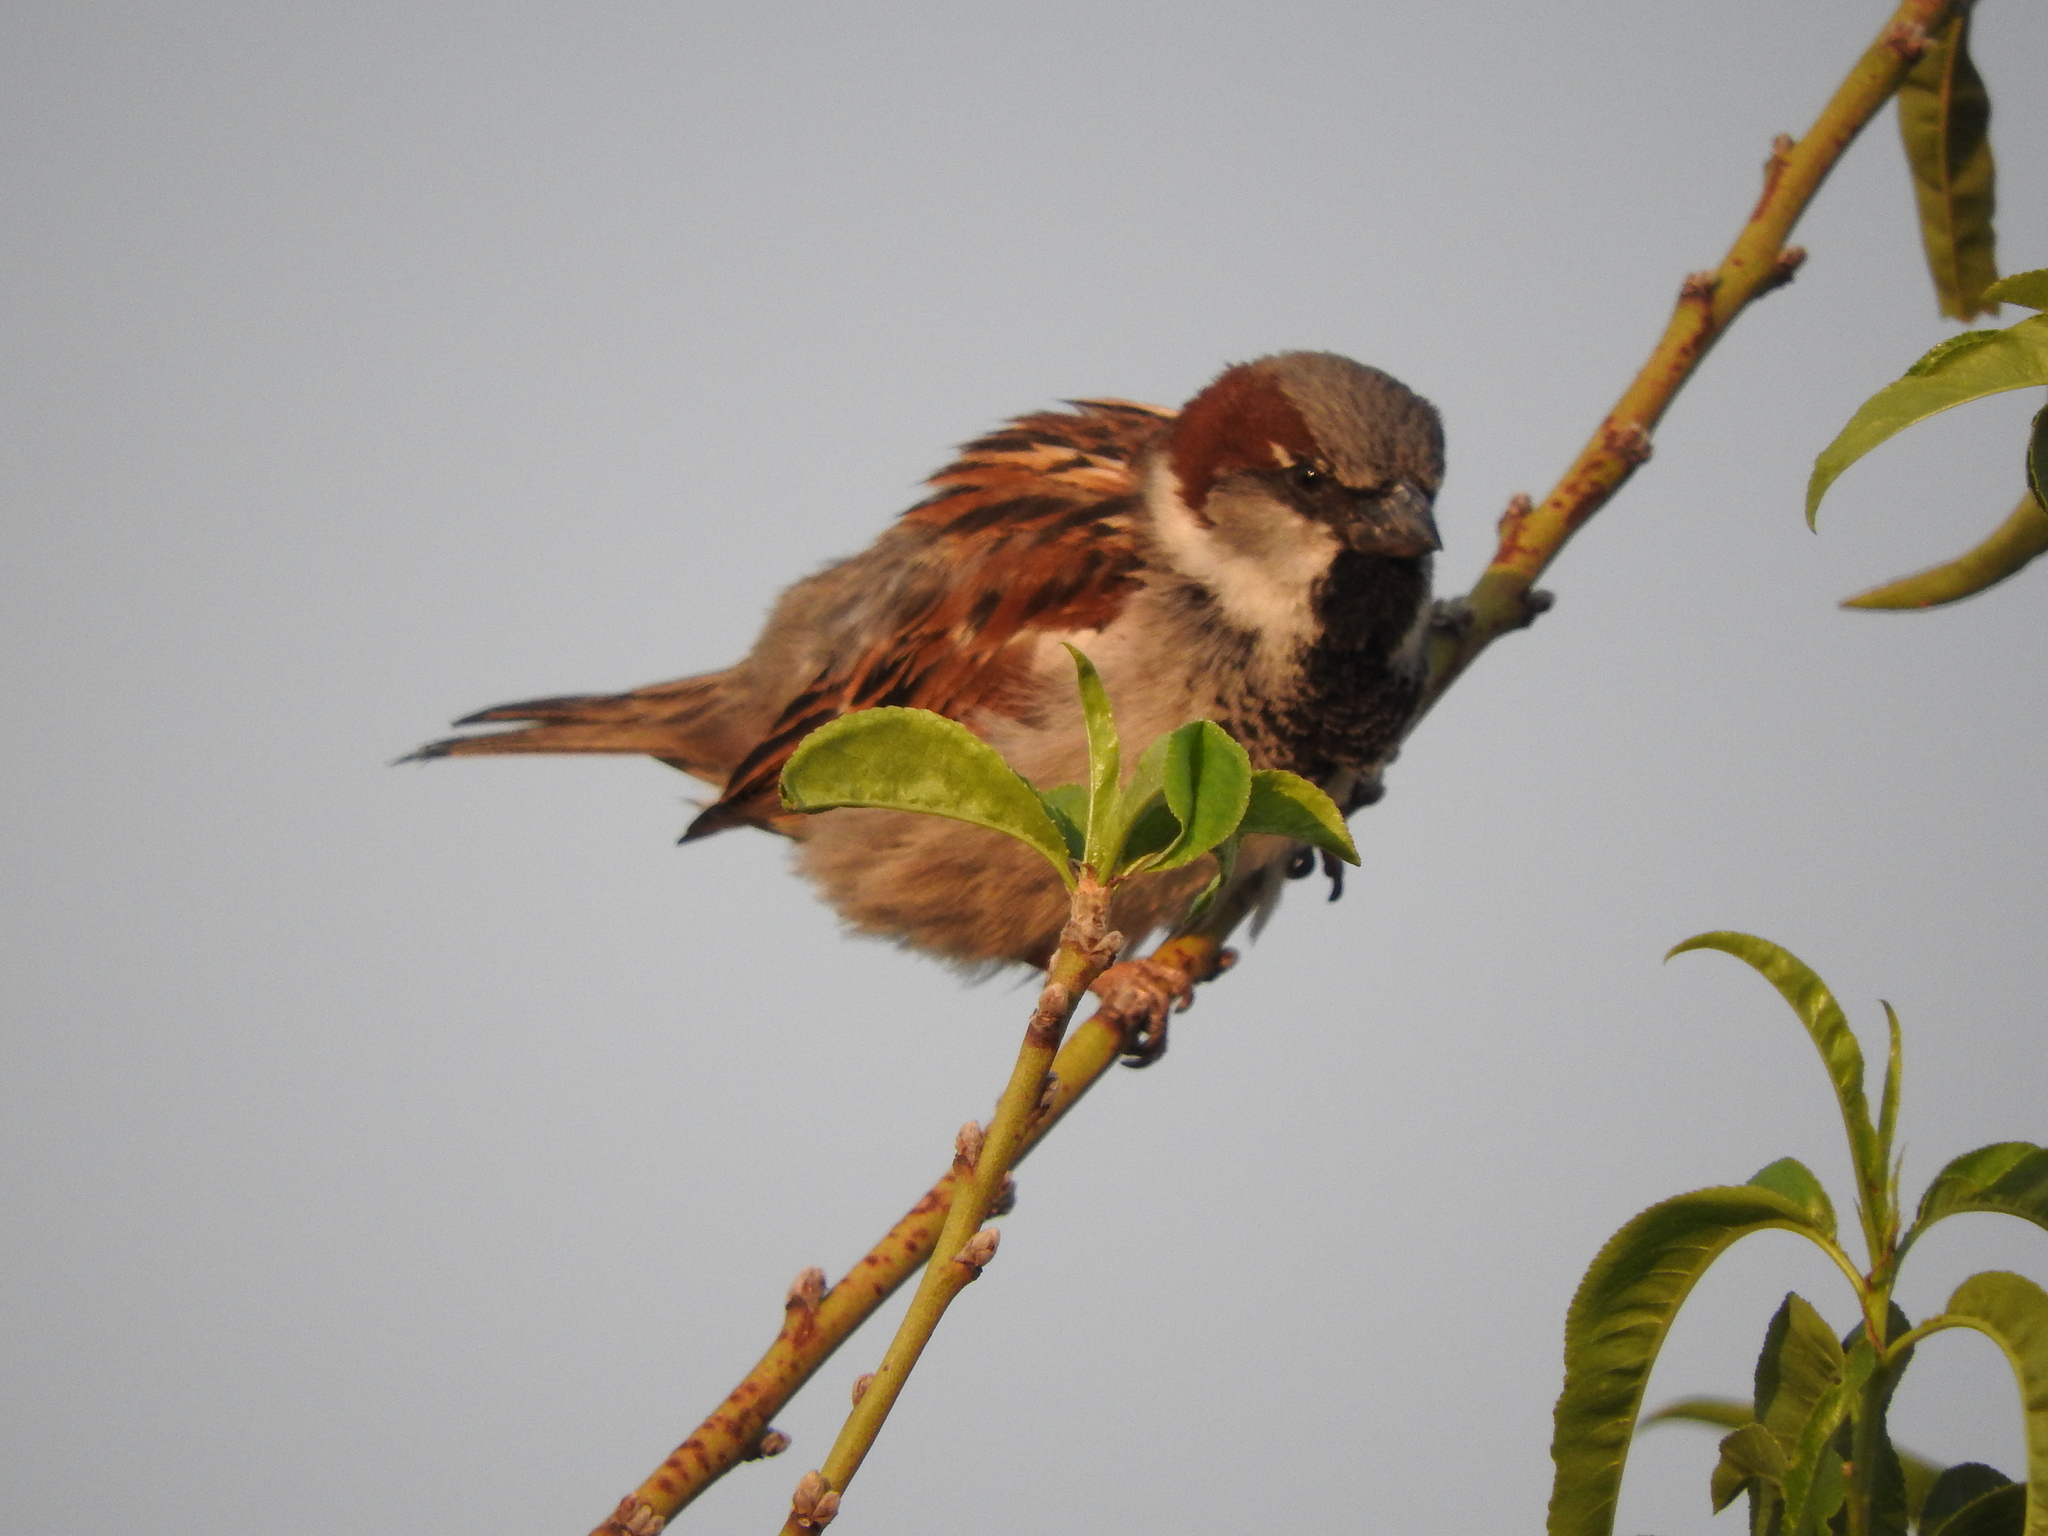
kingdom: Animalia
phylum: Chordata
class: Aves
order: Passeriformes
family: Passeridae
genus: Passer
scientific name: Passer domesticus
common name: House sparrow
